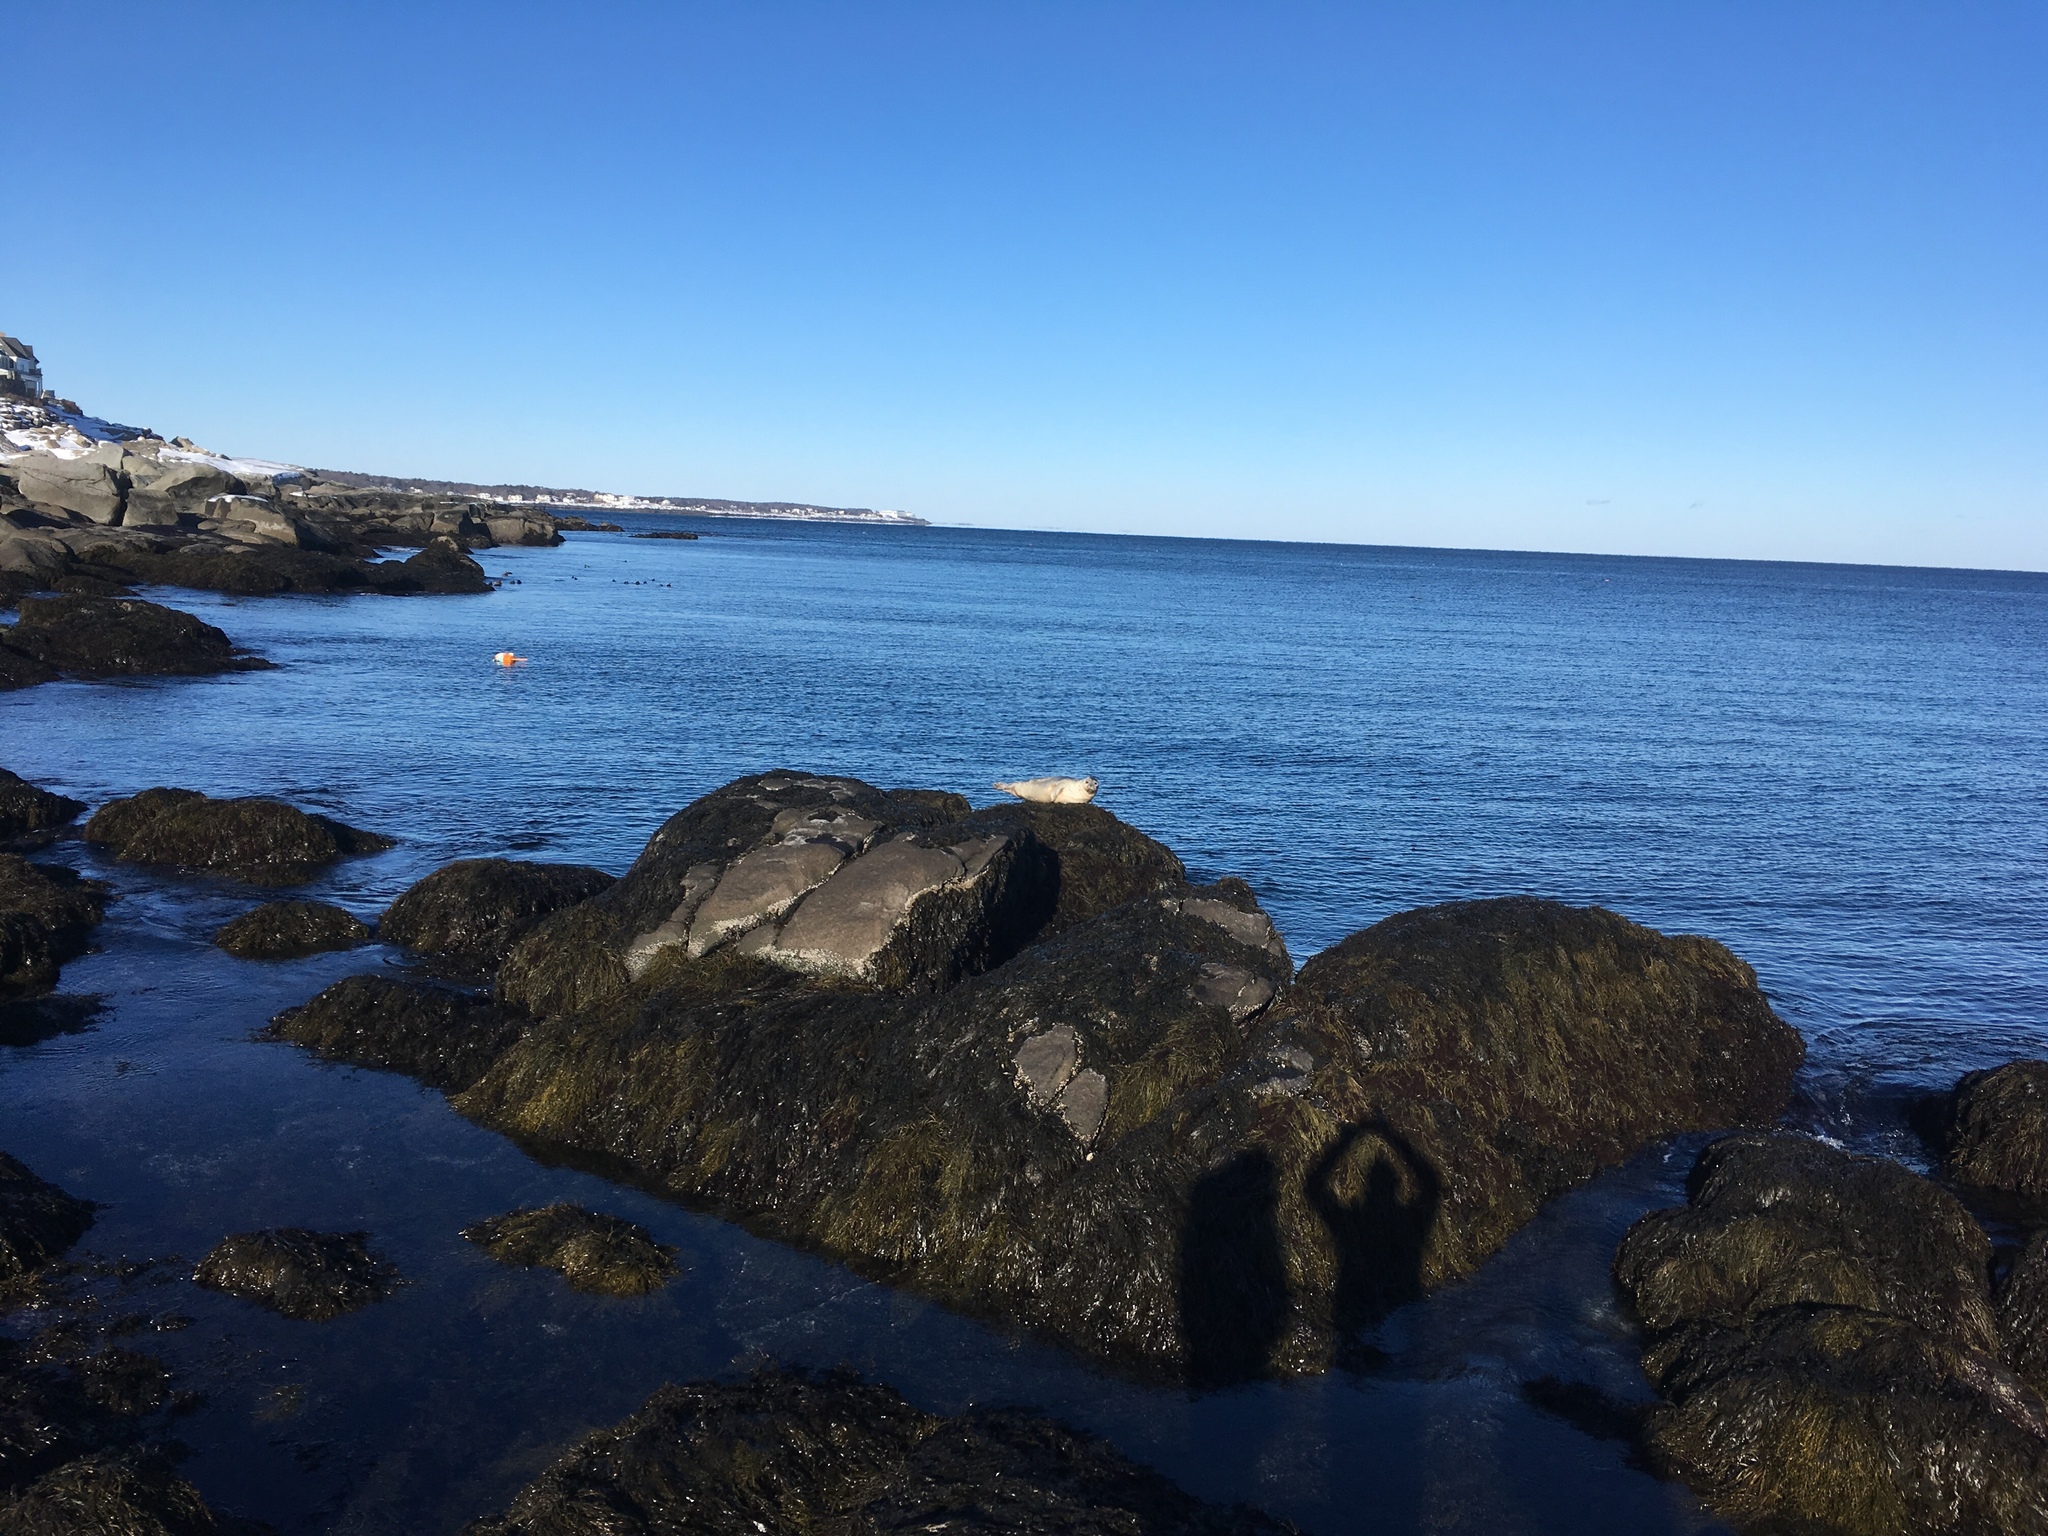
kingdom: Animalia
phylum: Chordata
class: Mammalia
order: Carnivora
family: Phocidae
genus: Phoca
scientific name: Phoca vitulina
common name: Harbor seal
